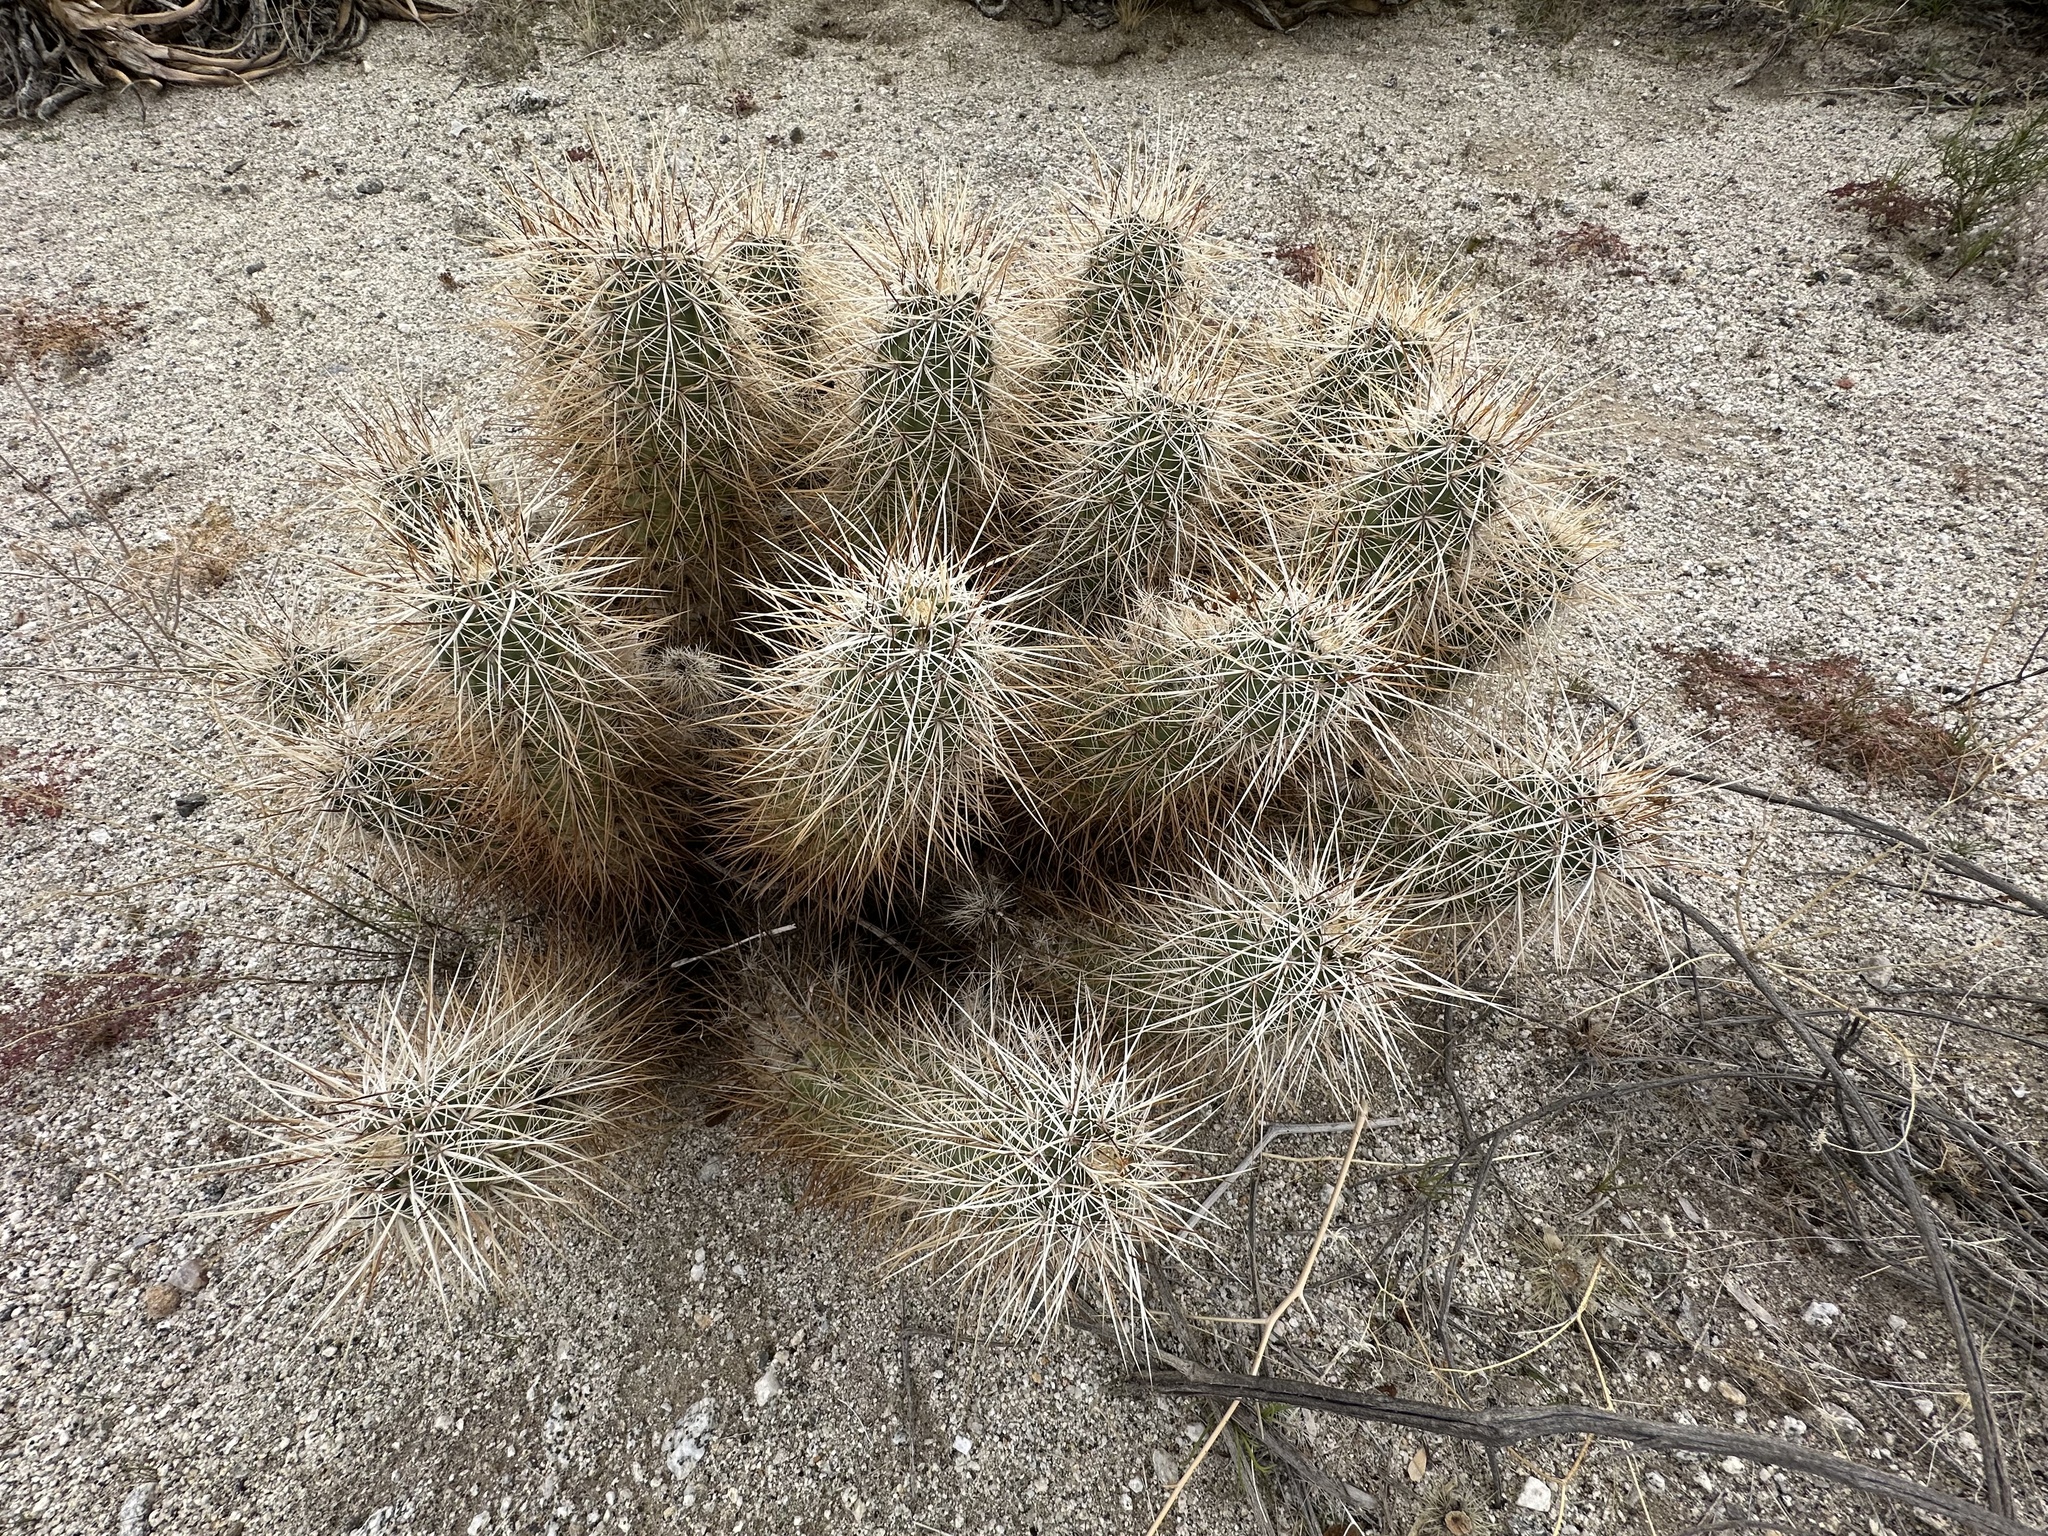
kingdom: Plantae
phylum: Tracheophyta
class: Magnoliopsida
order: Caryophyllales
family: Cactaceae
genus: Echinocereus
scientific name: Echinocereus engelmannii
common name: Engelmann's hedgehog cactus
